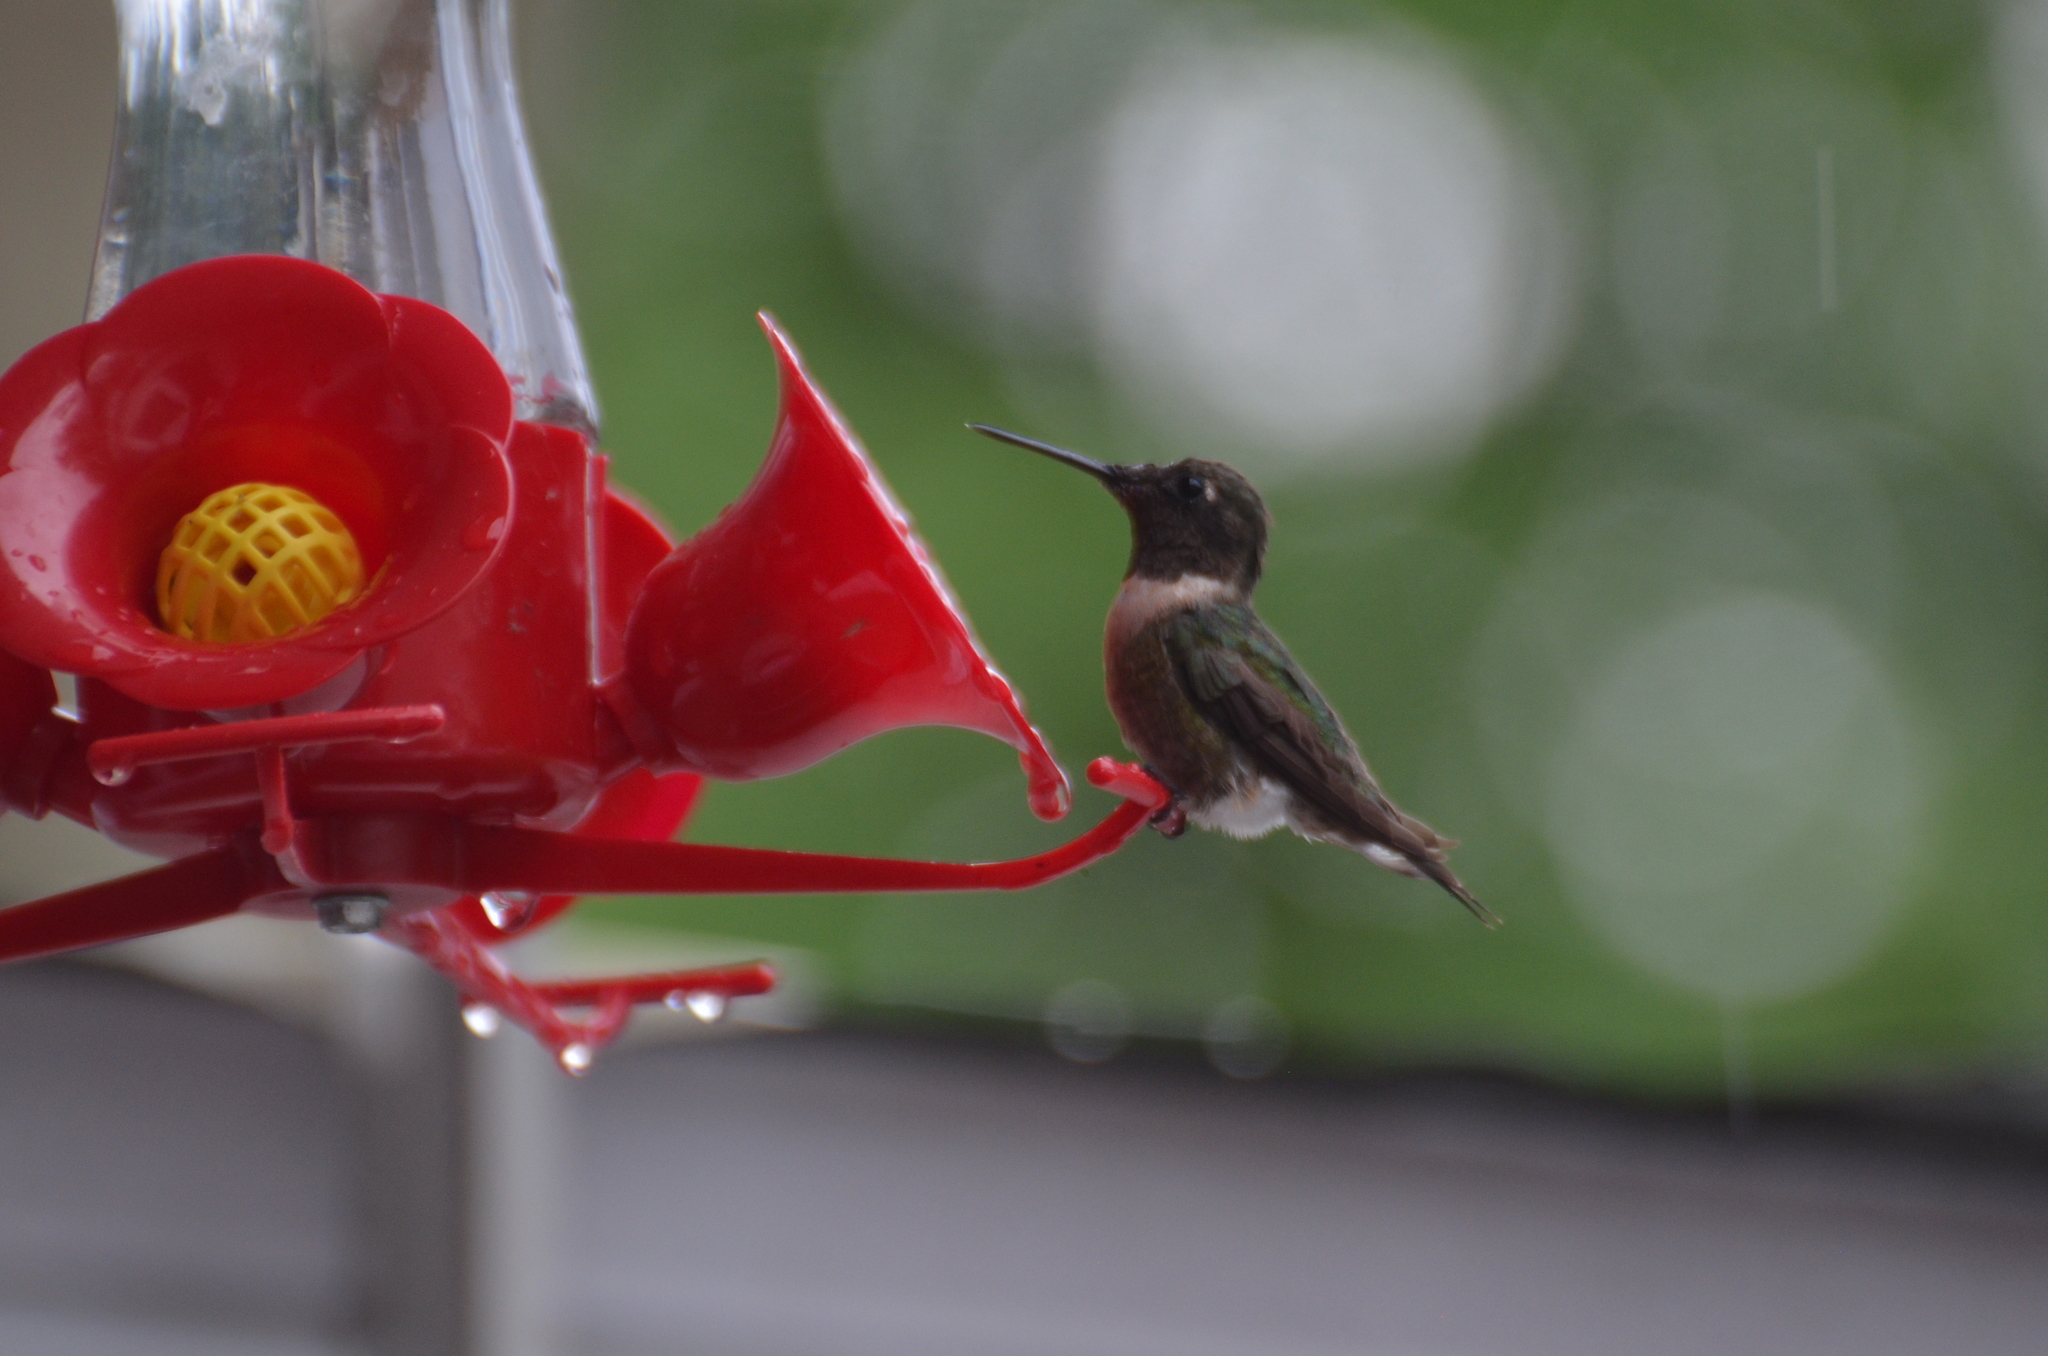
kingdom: Animalia
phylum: Chordata
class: Aves
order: Apodiformes
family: Trochilidae
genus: Archilochus
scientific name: Archilochus colubris
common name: Ruby-throated hummingbird
